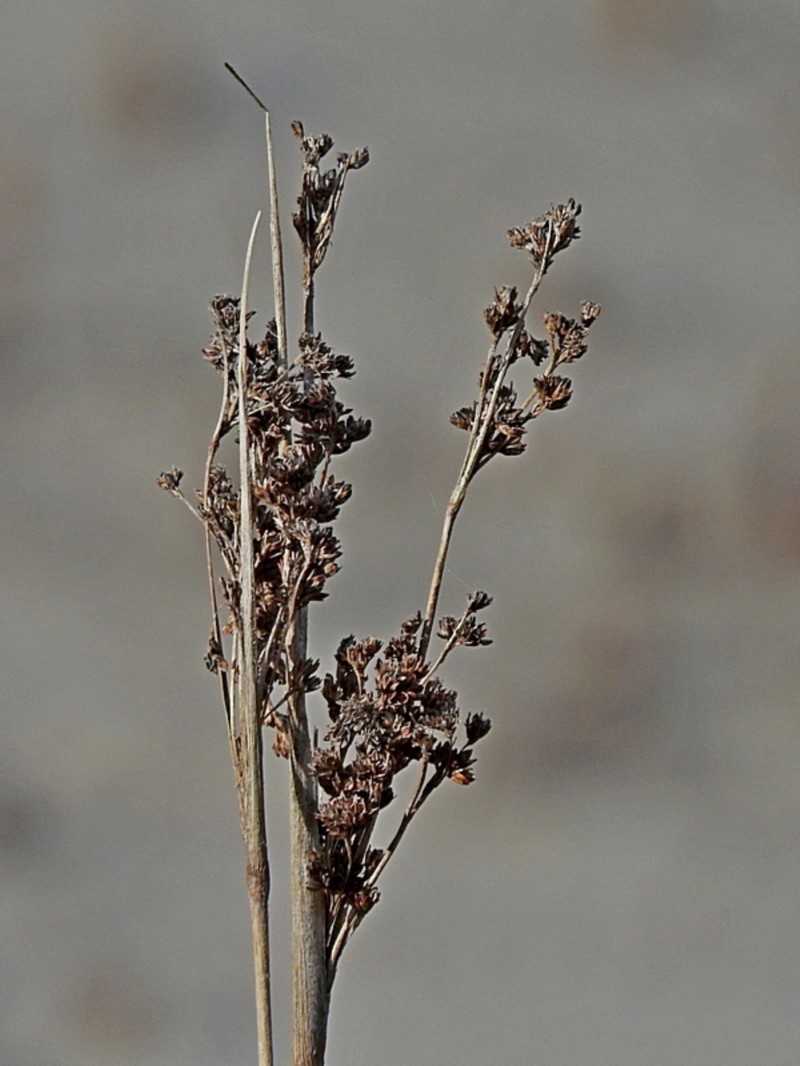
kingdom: Plantae
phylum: Tracheophyta
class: Liliopsida
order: Poales
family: Juncaceae
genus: Juncus
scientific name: Juncus kraussii
